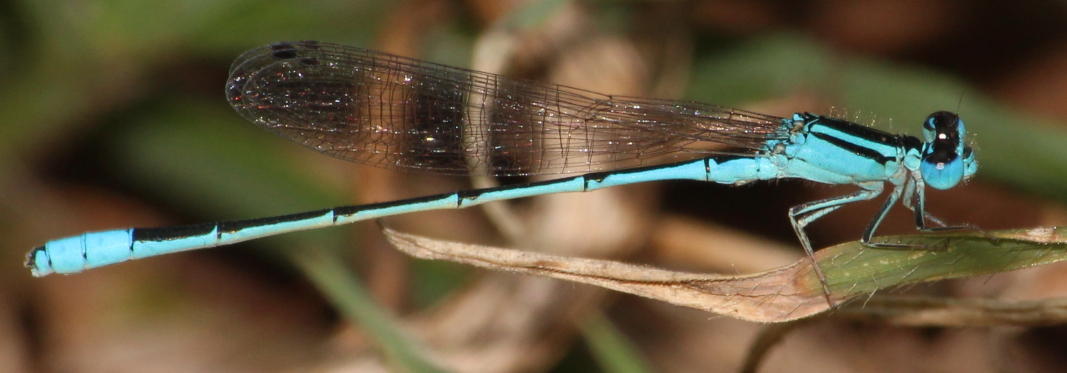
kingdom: Animalia
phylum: Arthropoda
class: Insecta
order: Odonata
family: Coenagrionidae
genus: Africallagma
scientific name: Africallagma glaucum
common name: Swamp bluet
